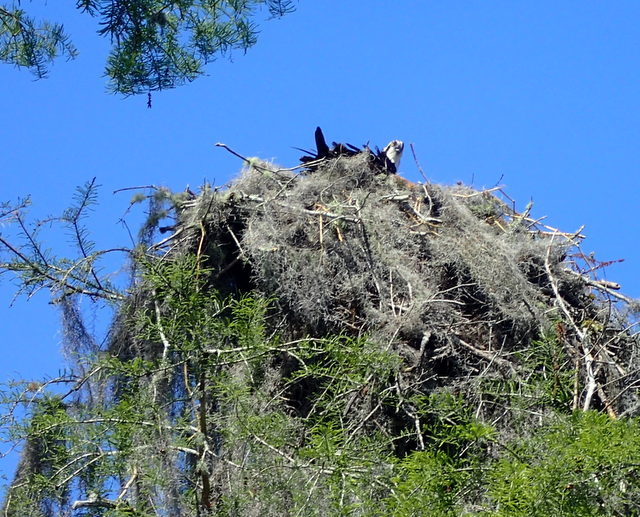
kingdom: Animalia
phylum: Chordata
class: Aves
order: Accipitriformes
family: Pandionidae
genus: Pandion
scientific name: Pandion haliaetus
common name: Osprey
